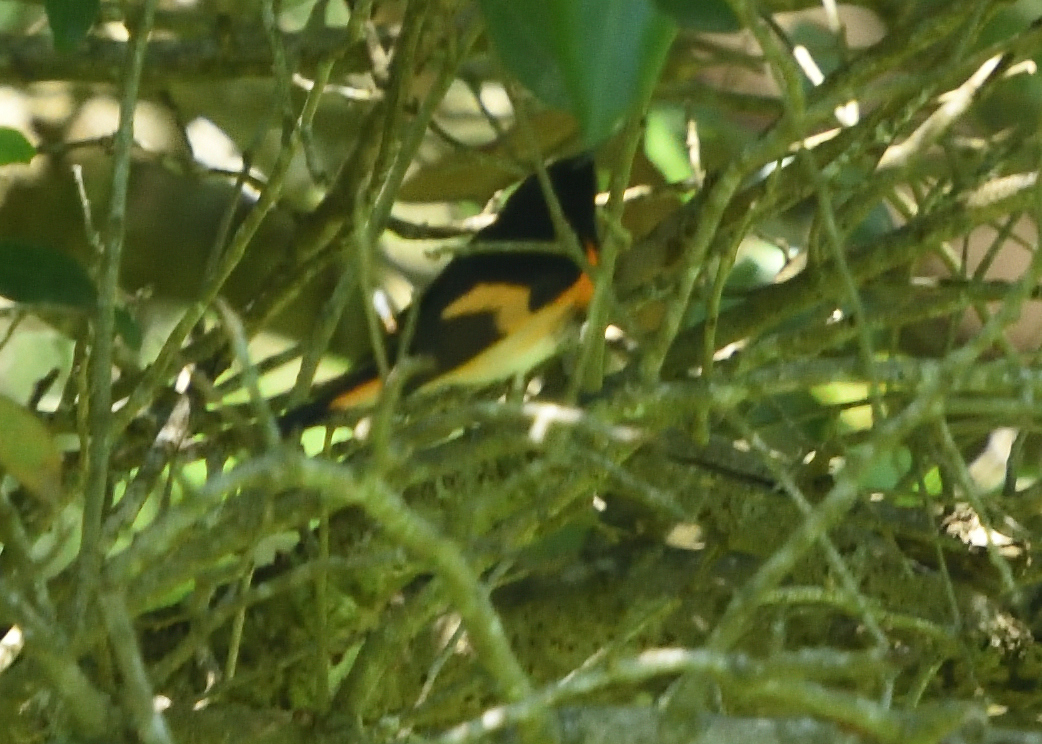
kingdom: Animalia
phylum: Chordata
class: Aves
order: Passeriformes
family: Parulidae
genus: Setophaga
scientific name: Setophaga ruticilla
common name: American redstart
